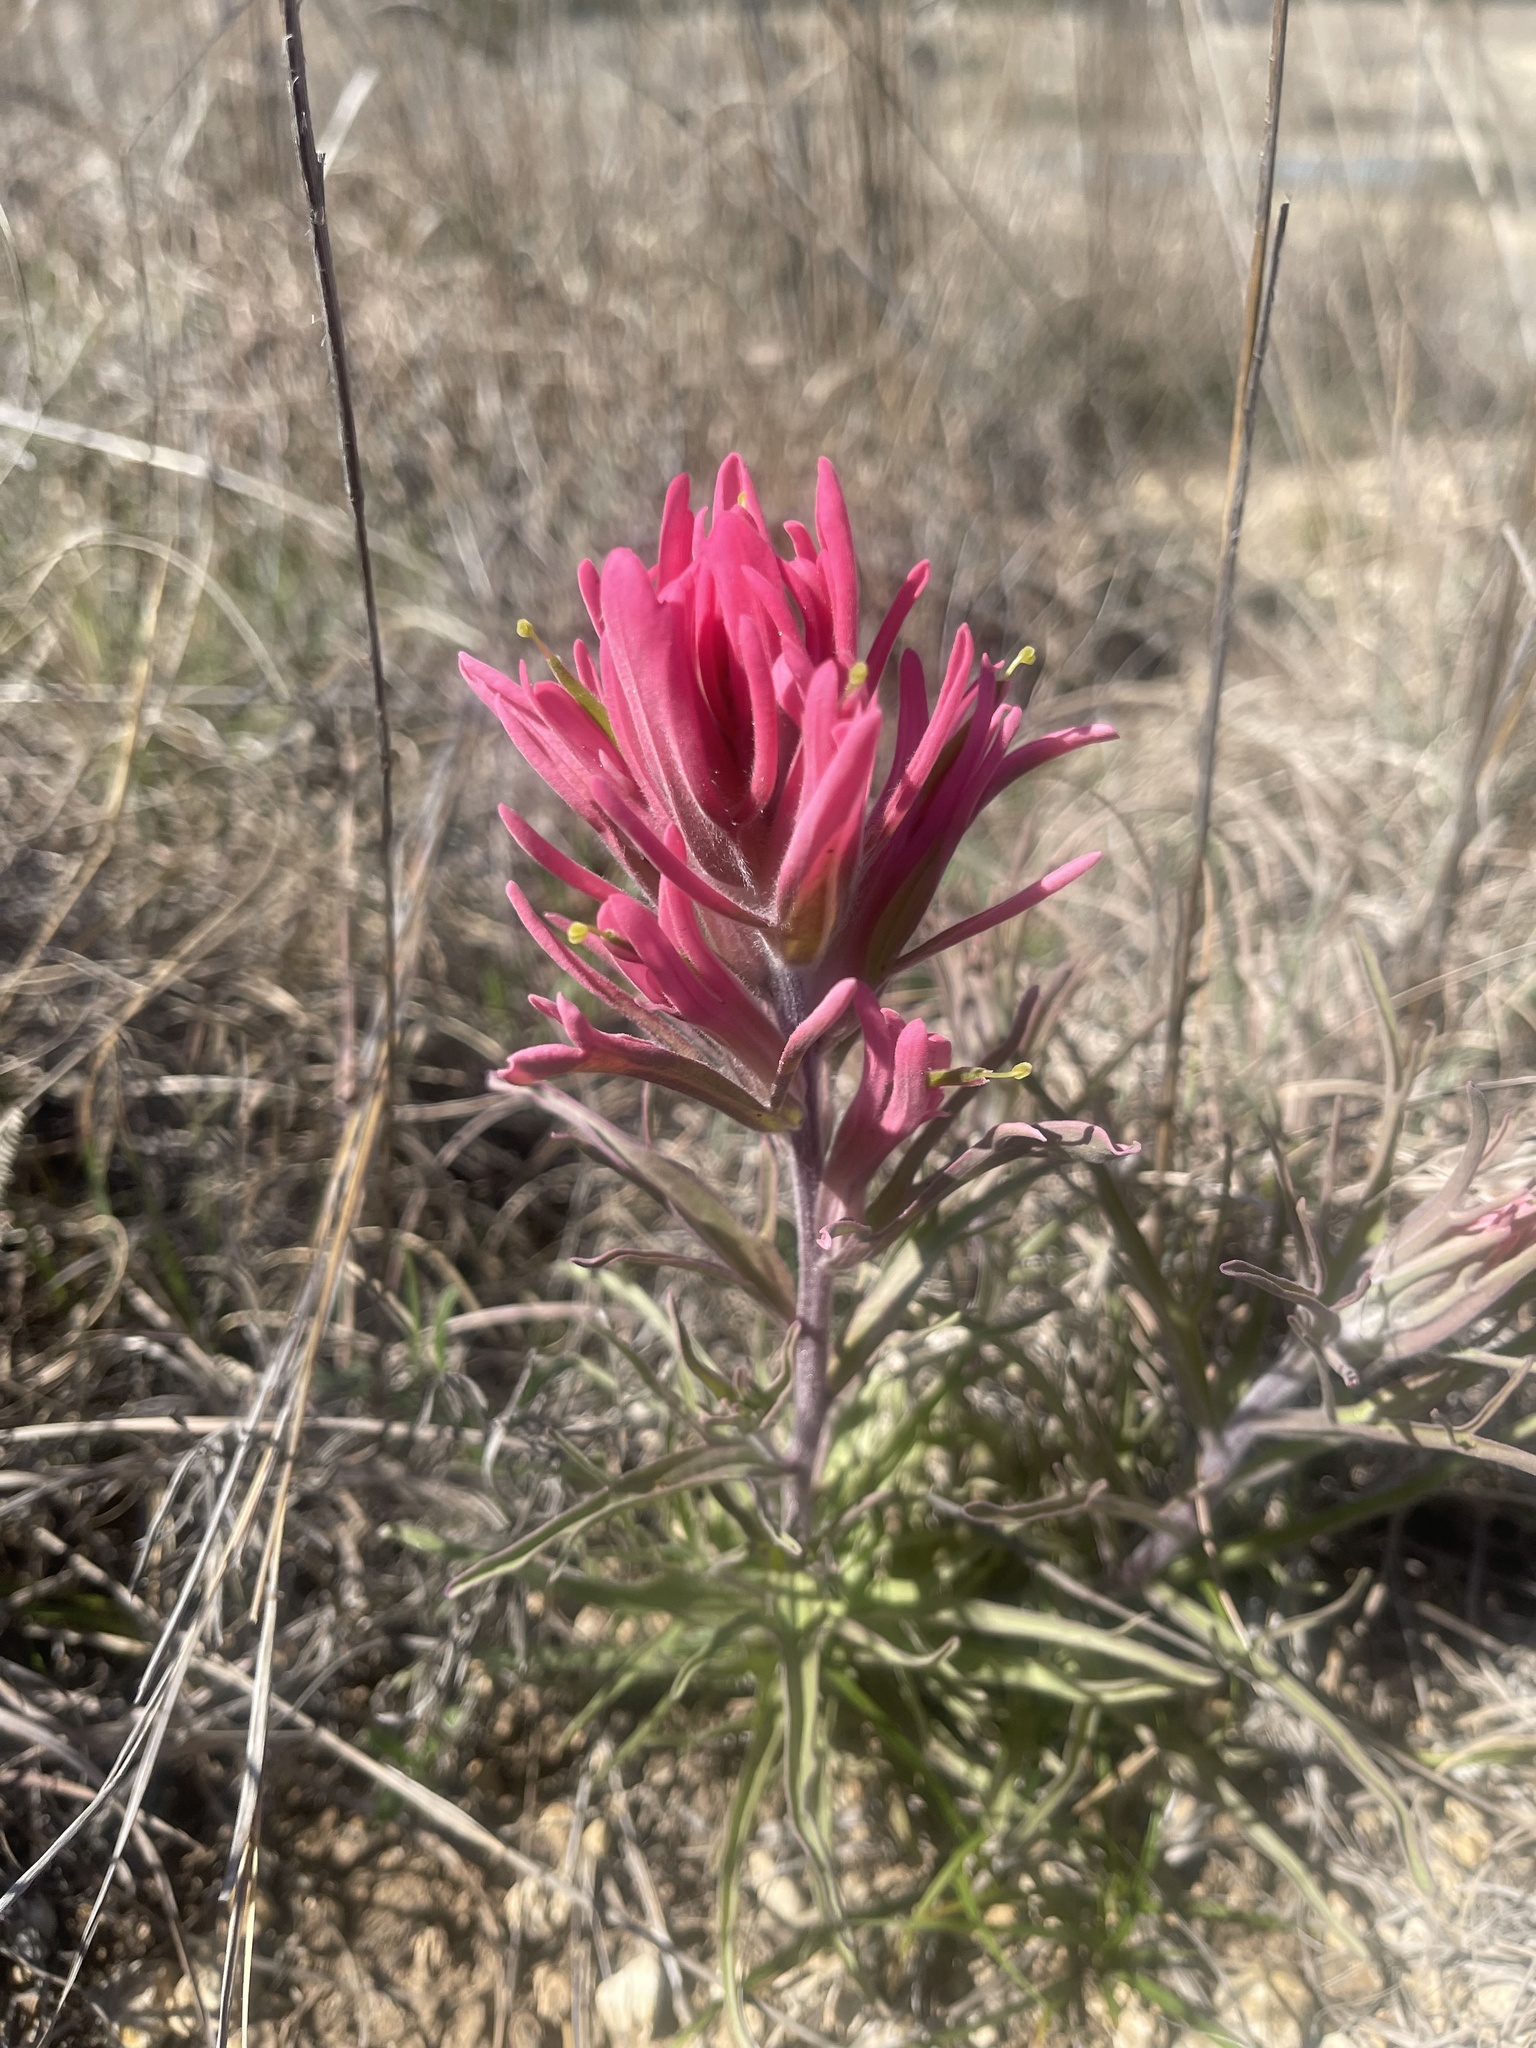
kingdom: Plantae
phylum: Tracheophyta
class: Magnoliopsida
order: Lamiales
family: Orobanchaceae
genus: Castilleja
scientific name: Castilleja purpurea
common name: Plains paintbrush
